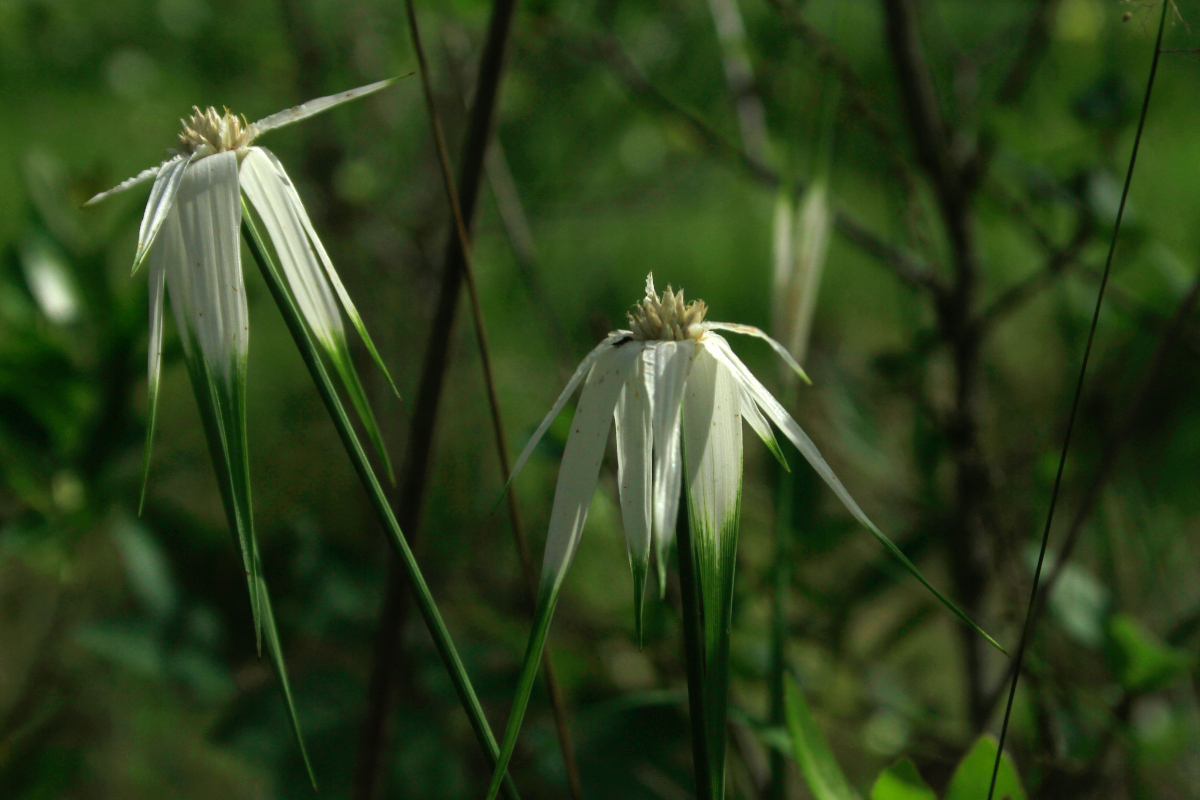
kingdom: Plantae
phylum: Tracheophyta
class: Liliopsida
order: Poales
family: Cyperaceae
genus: Rhynchospora
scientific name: Rhynchospora latifolia
